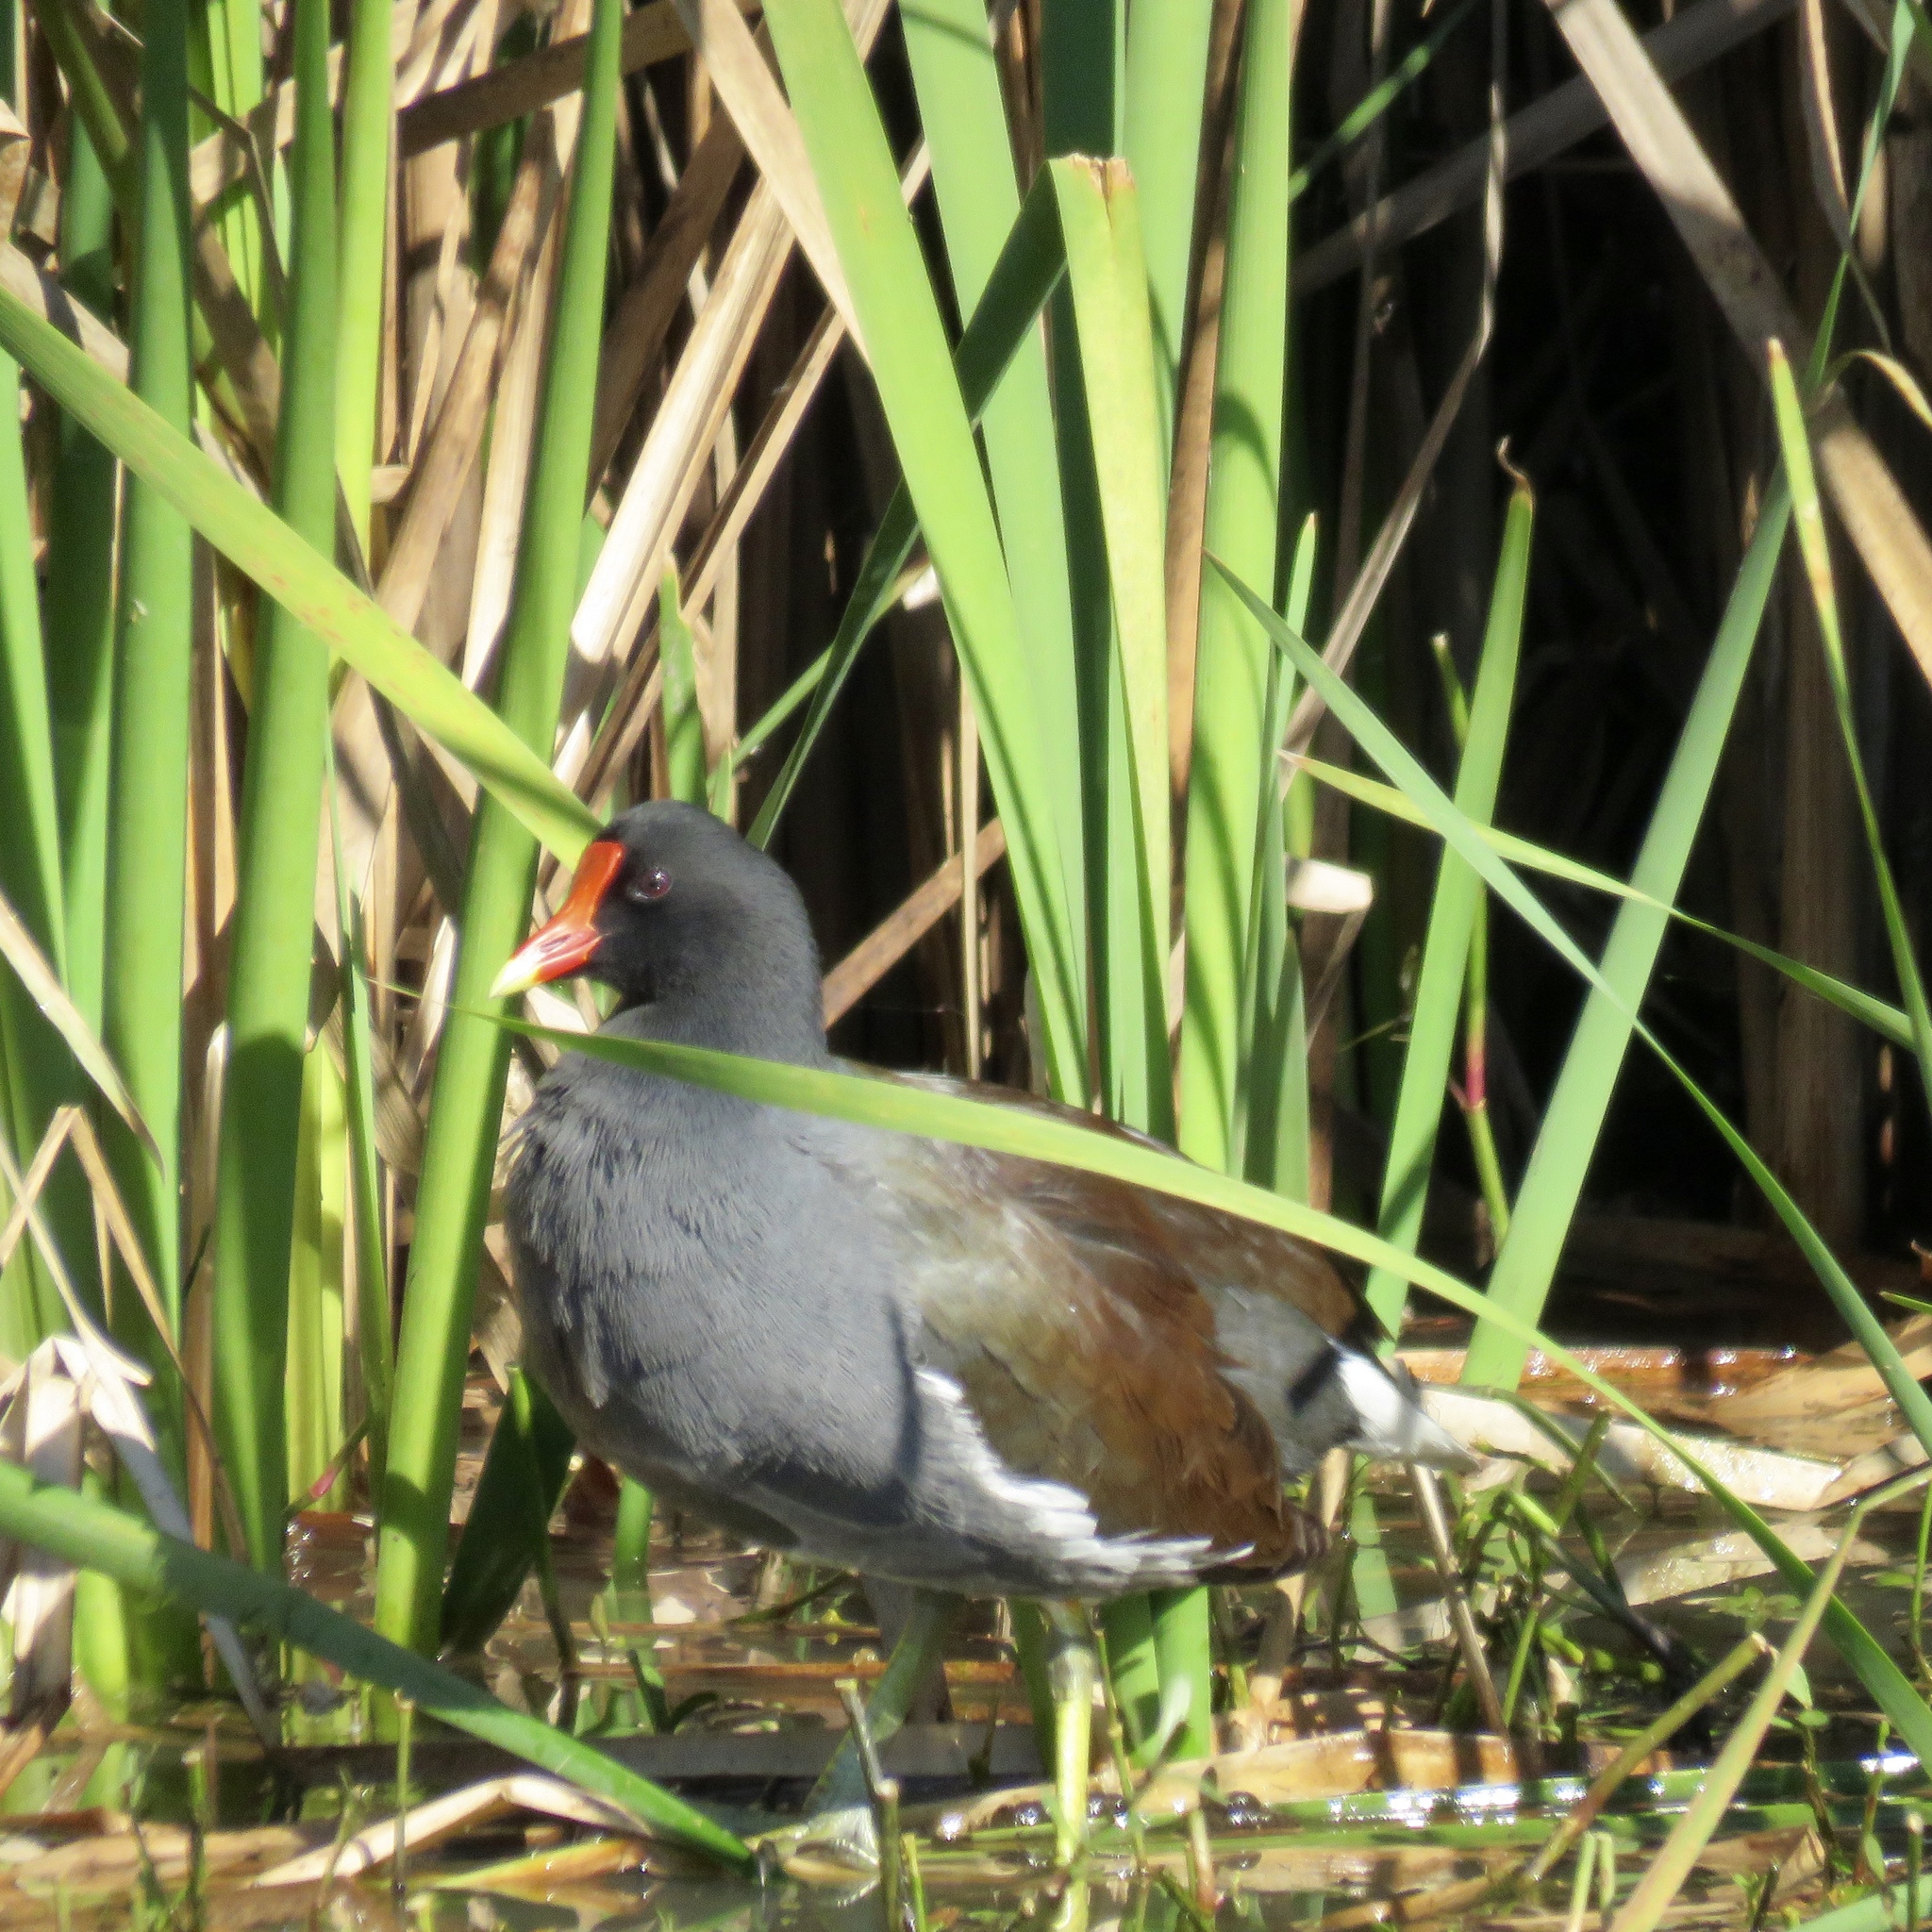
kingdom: Animalia
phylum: Chordata
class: Aves
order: Gruiformes
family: Rallidae
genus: Gallinula
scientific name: Gallinula chloropus
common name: Common moorhen
